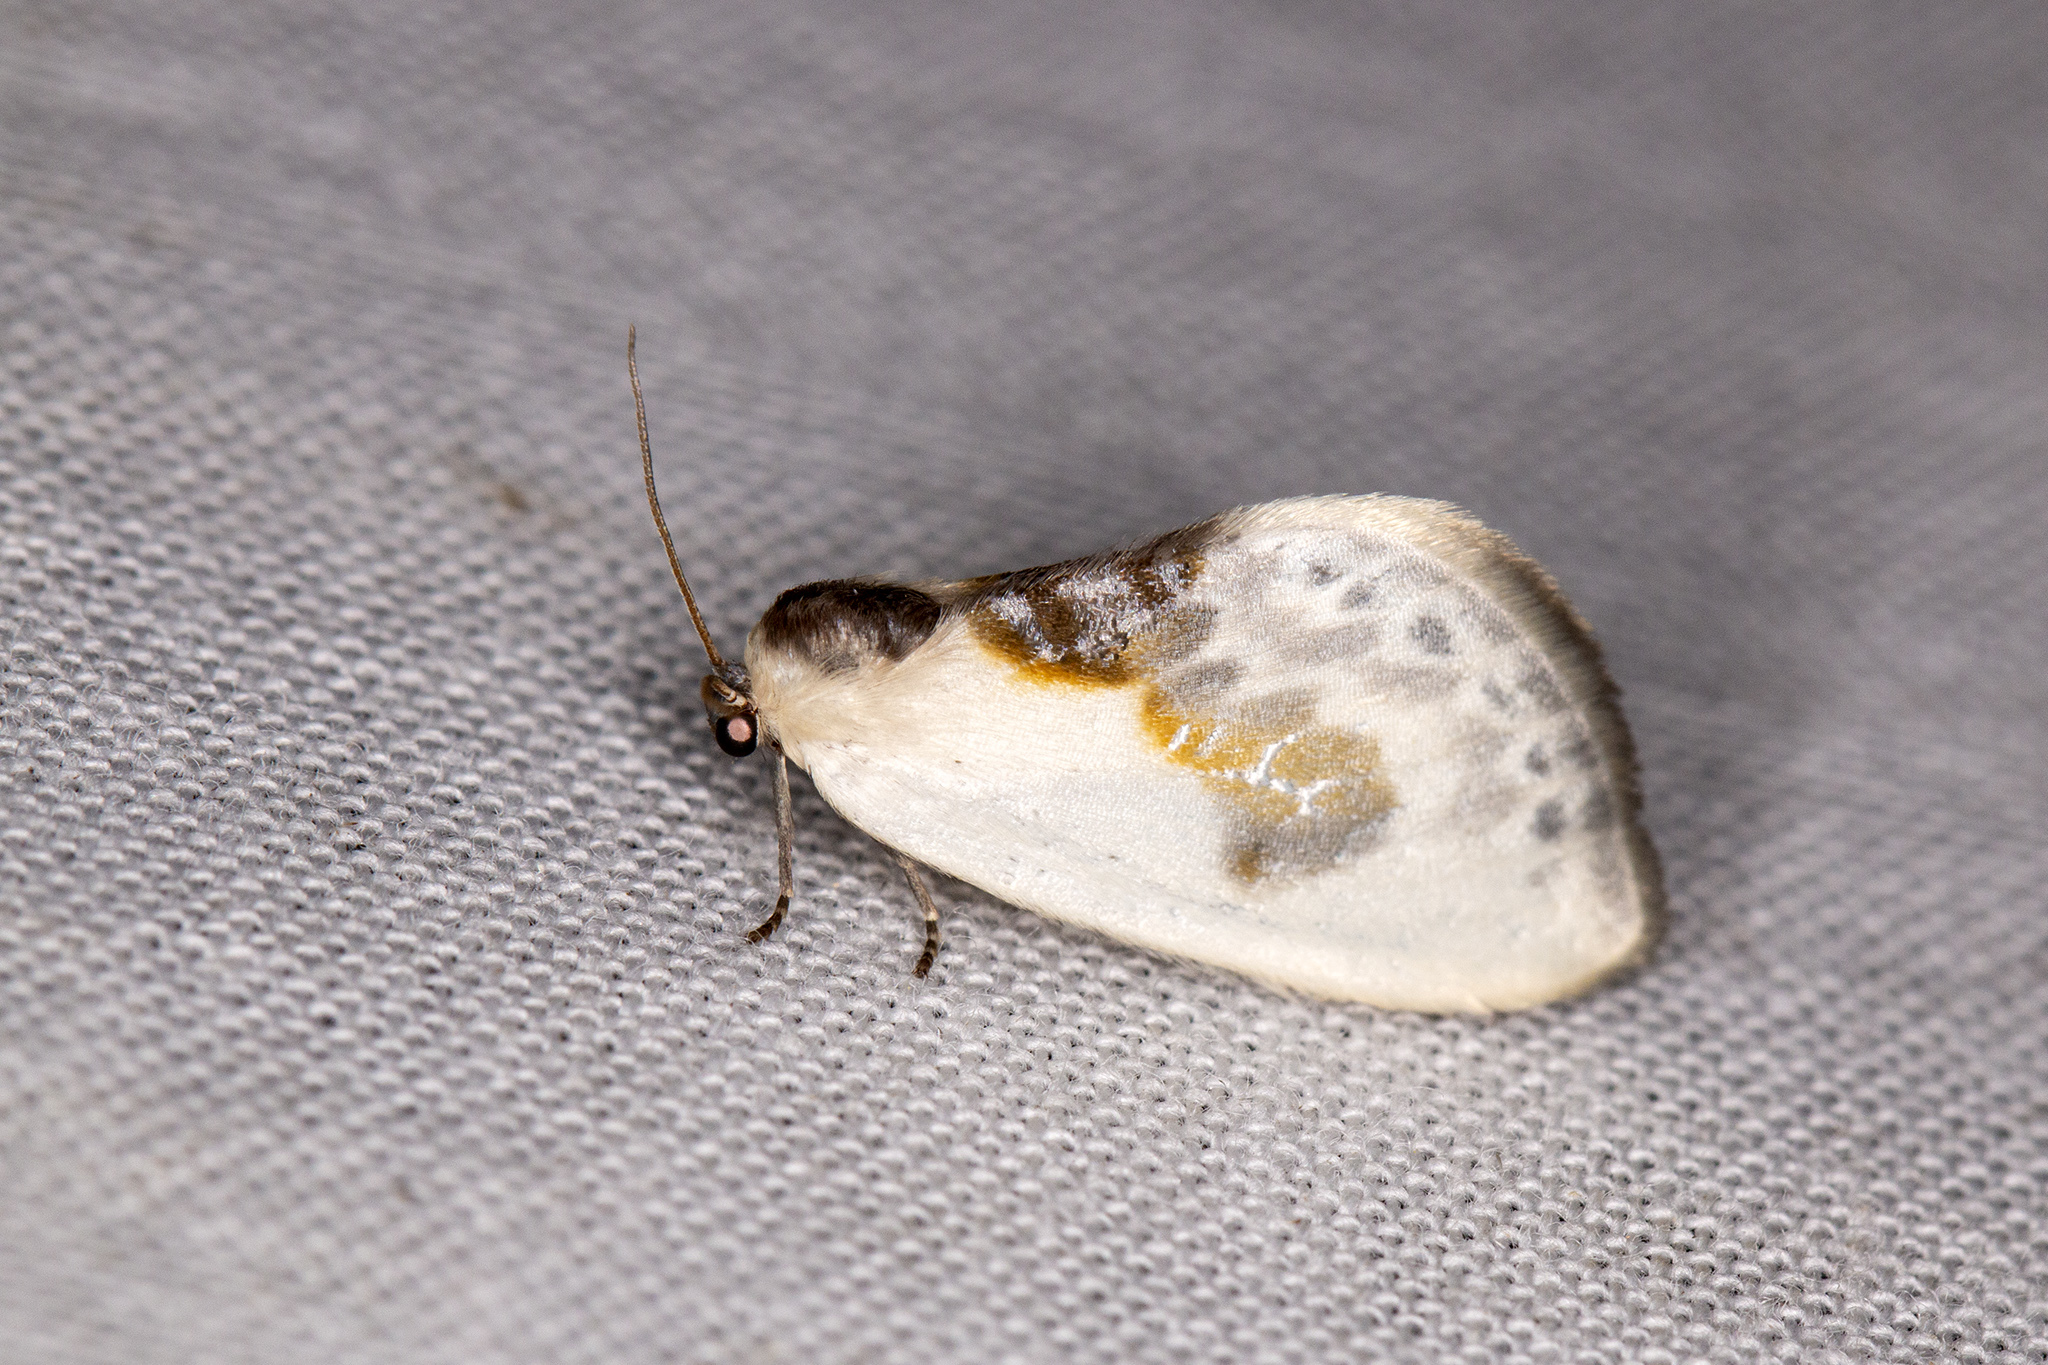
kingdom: Animalia
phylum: Arthropoda
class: Insecta
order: Lepidoptera
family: Drepanidae
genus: Cilix
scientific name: Cilix glaucata
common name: Chinese character
